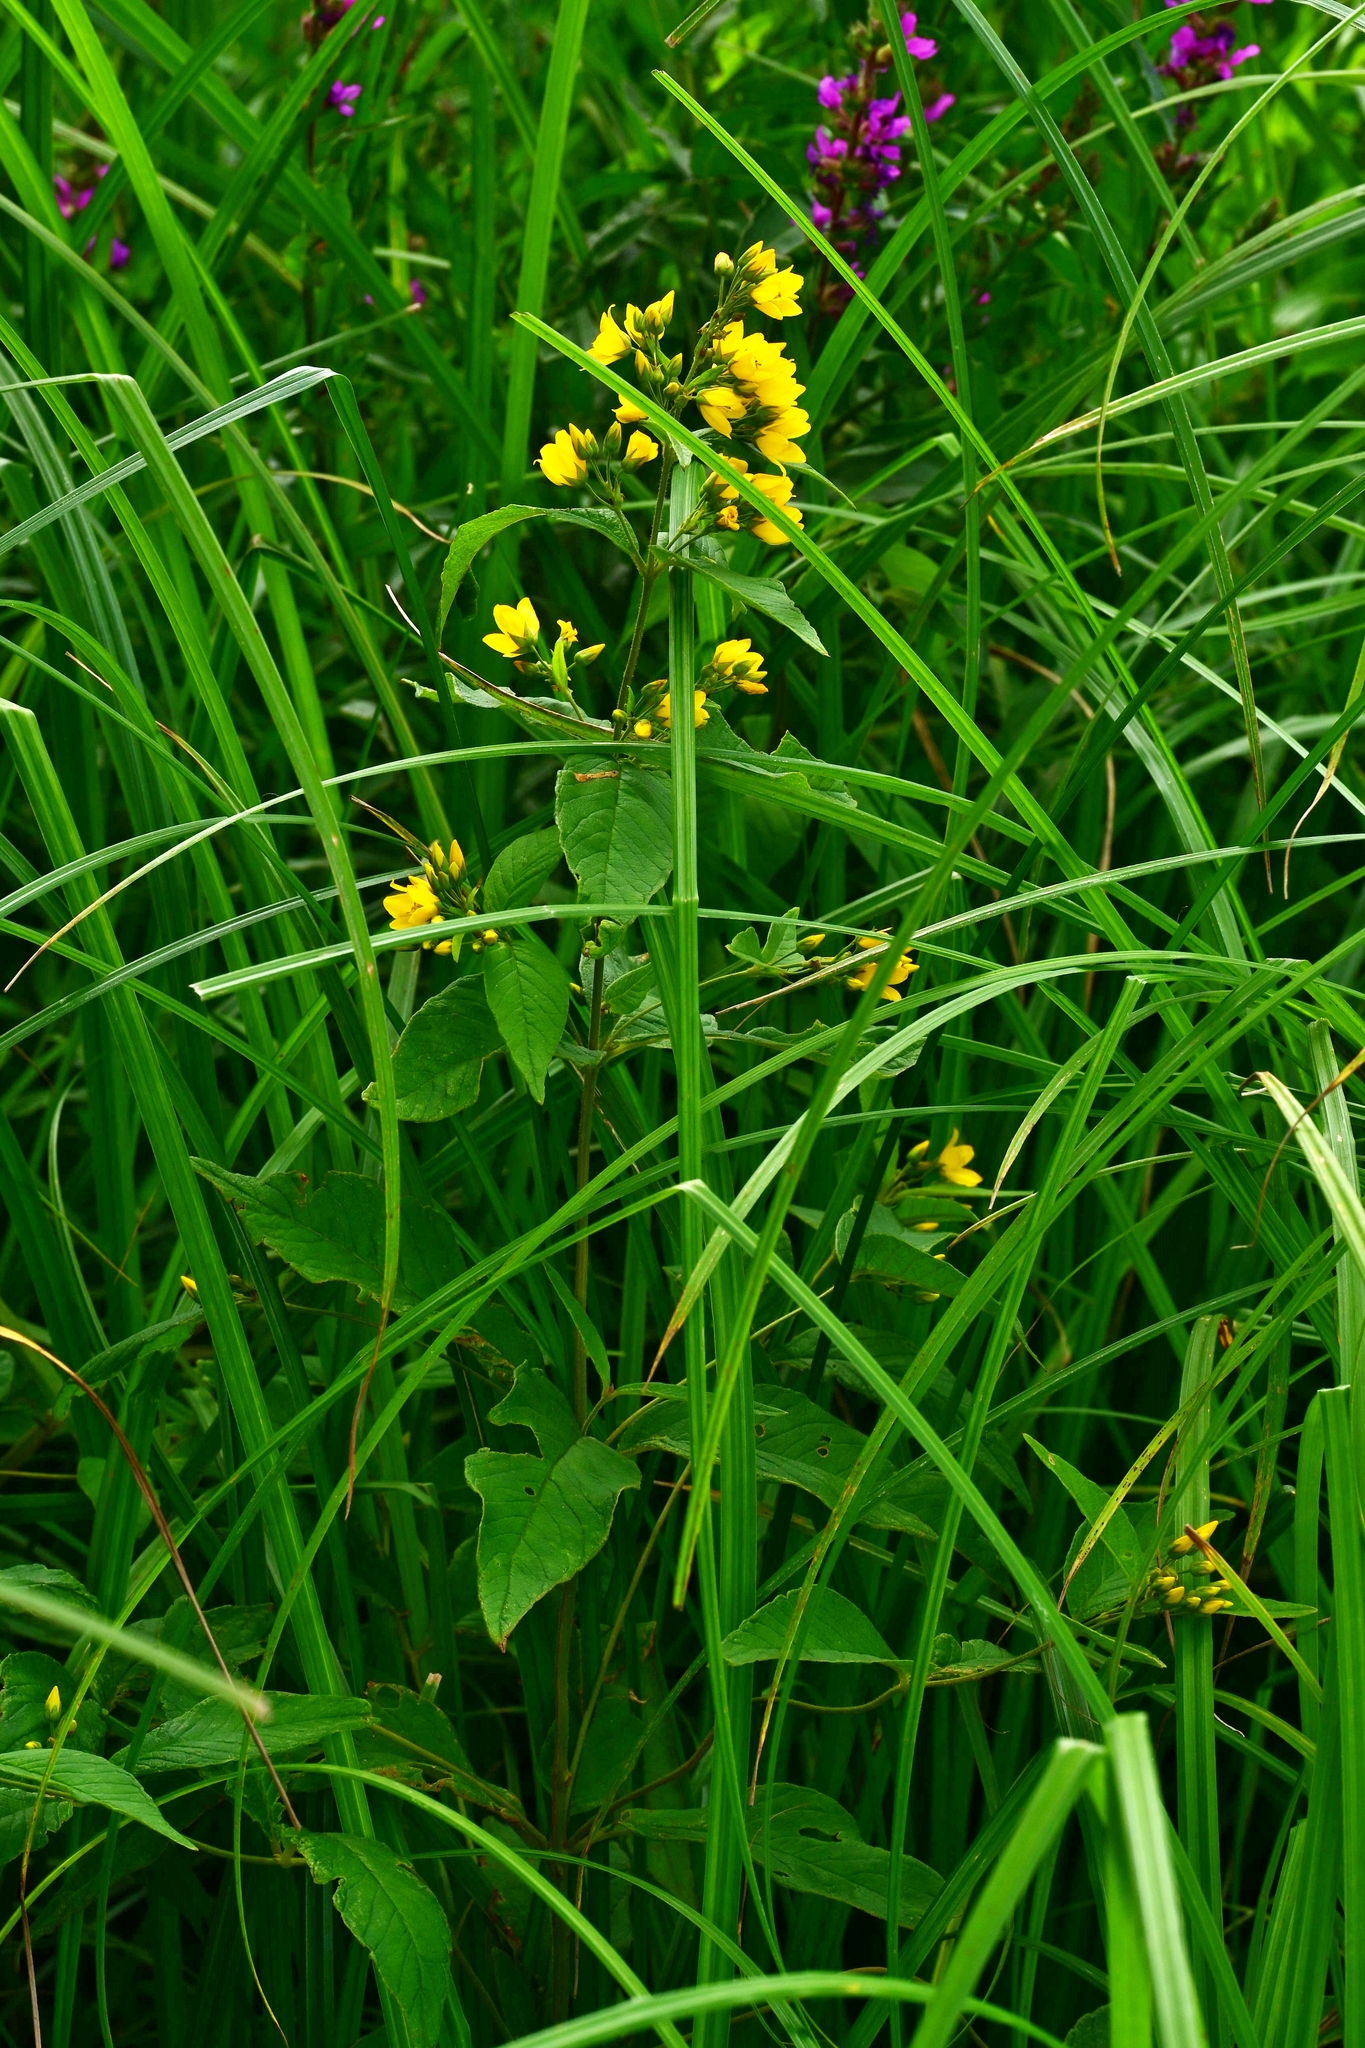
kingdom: Plantae
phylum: Tracheophyta
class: Magnoliopsida
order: Ericales
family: Primulaceae
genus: Lysimachia
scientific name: Lysimachia vulgaris
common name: Yellow loosestrife
